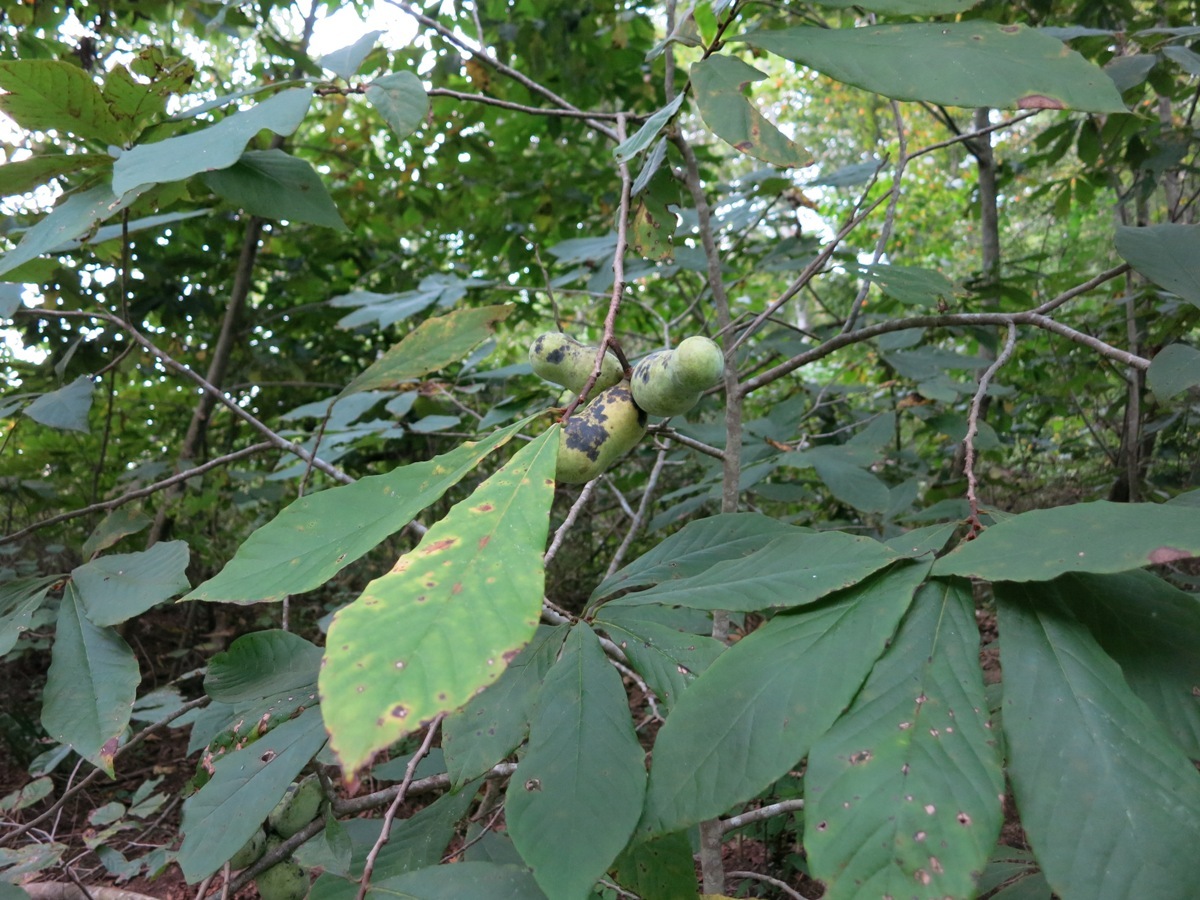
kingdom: Plantae
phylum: Tracheophyta
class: Magnoliopsida
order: Magnoliales
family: Annonaceae
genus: Asimina
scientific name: Asimina triloba
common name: Dog-banana
